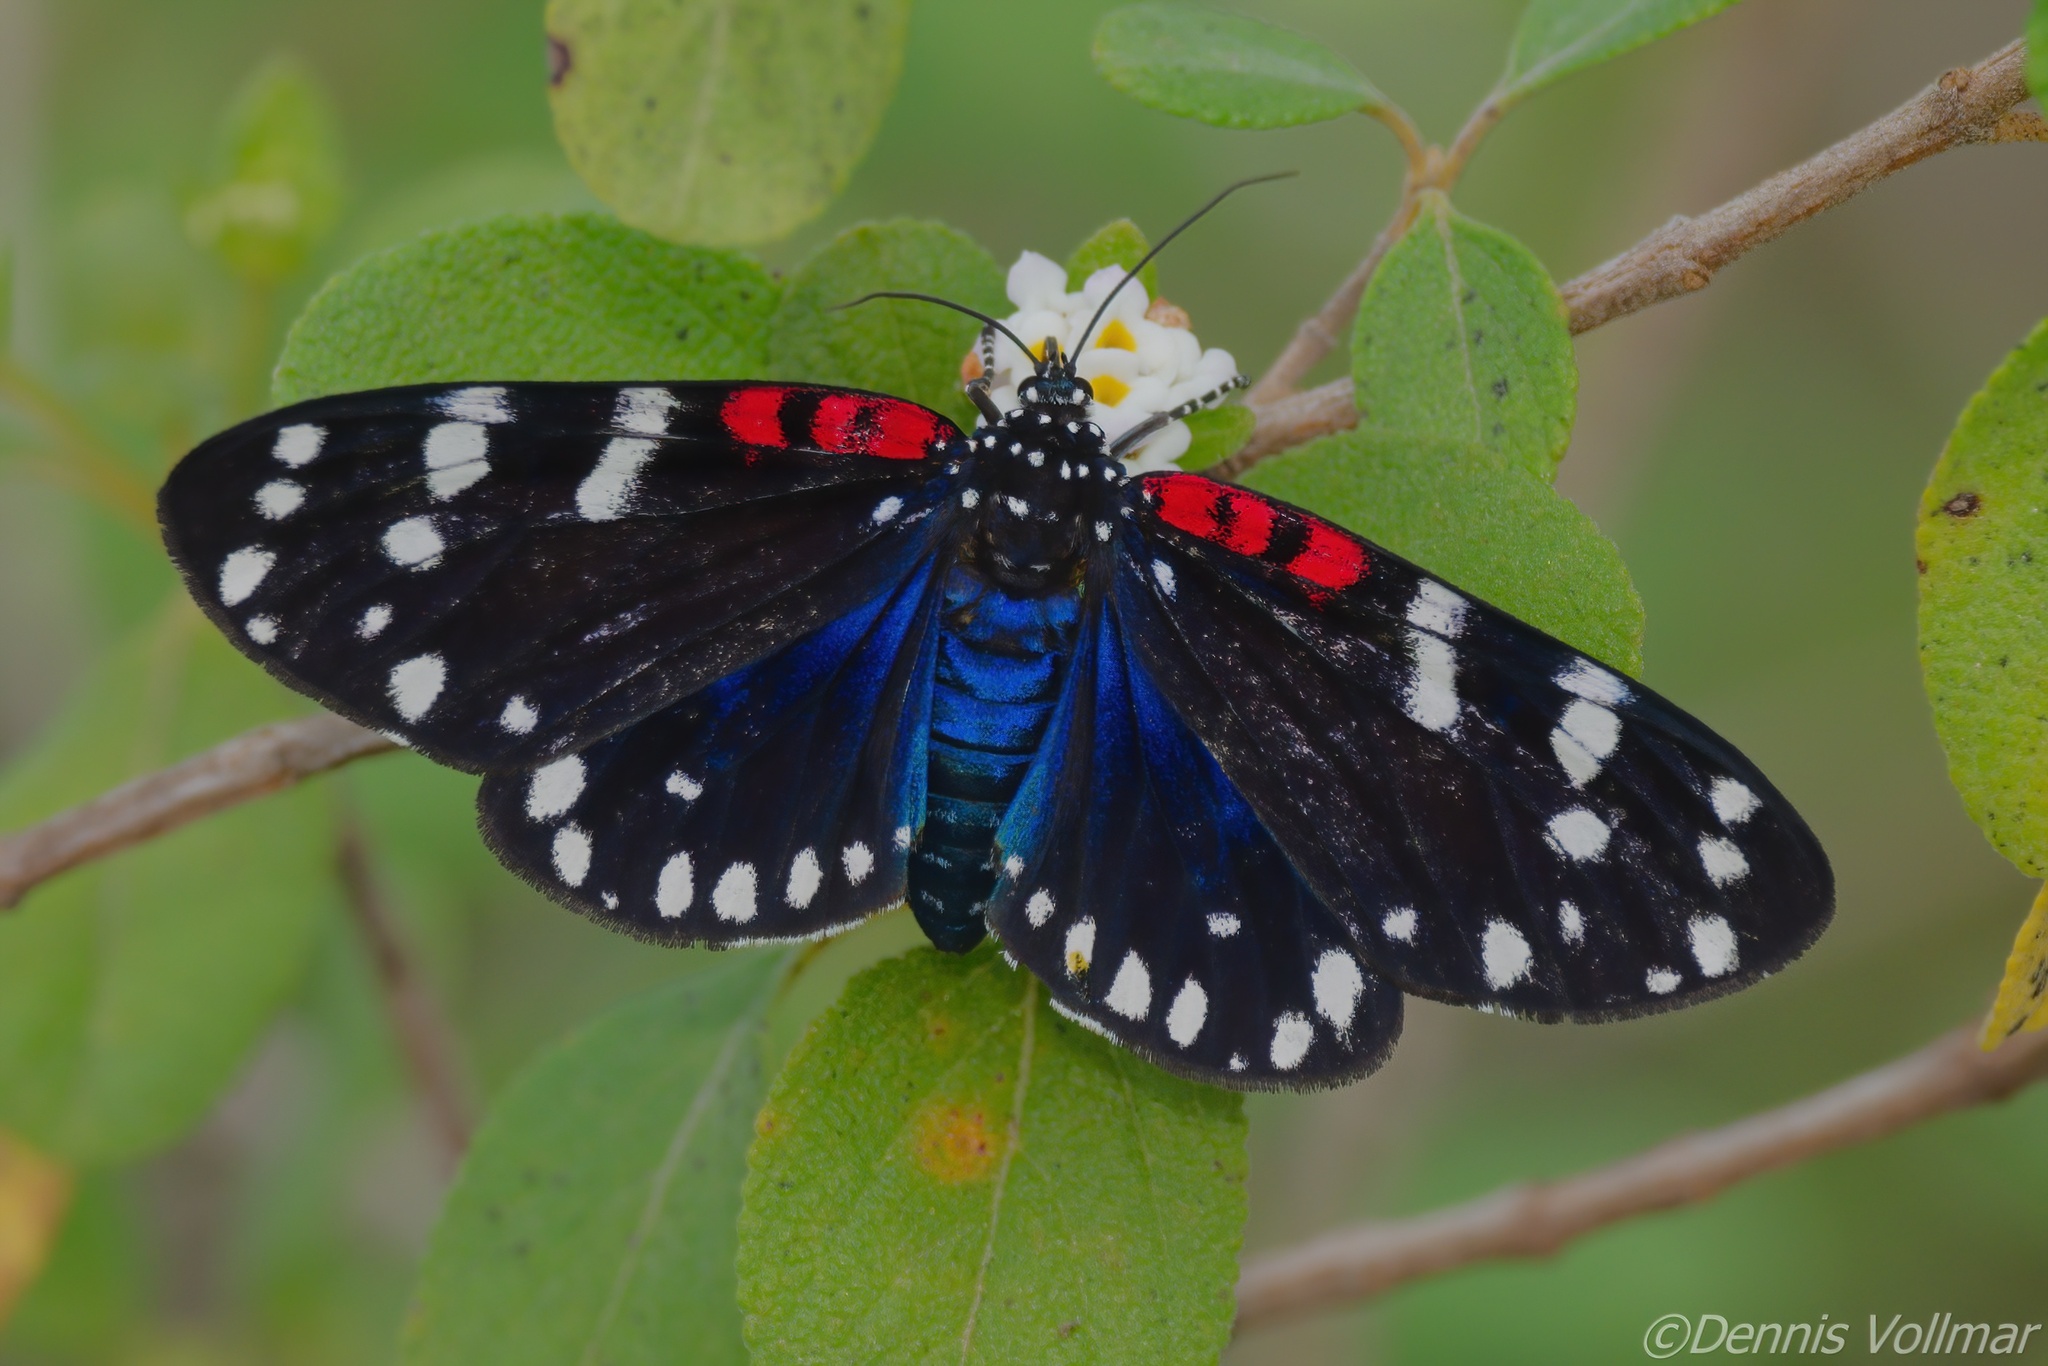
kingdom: Animalia
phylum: Arthropoda
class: Insecta
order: Lepidoptera
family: Erebidae
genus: Composia
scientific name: Composia fidelissima
